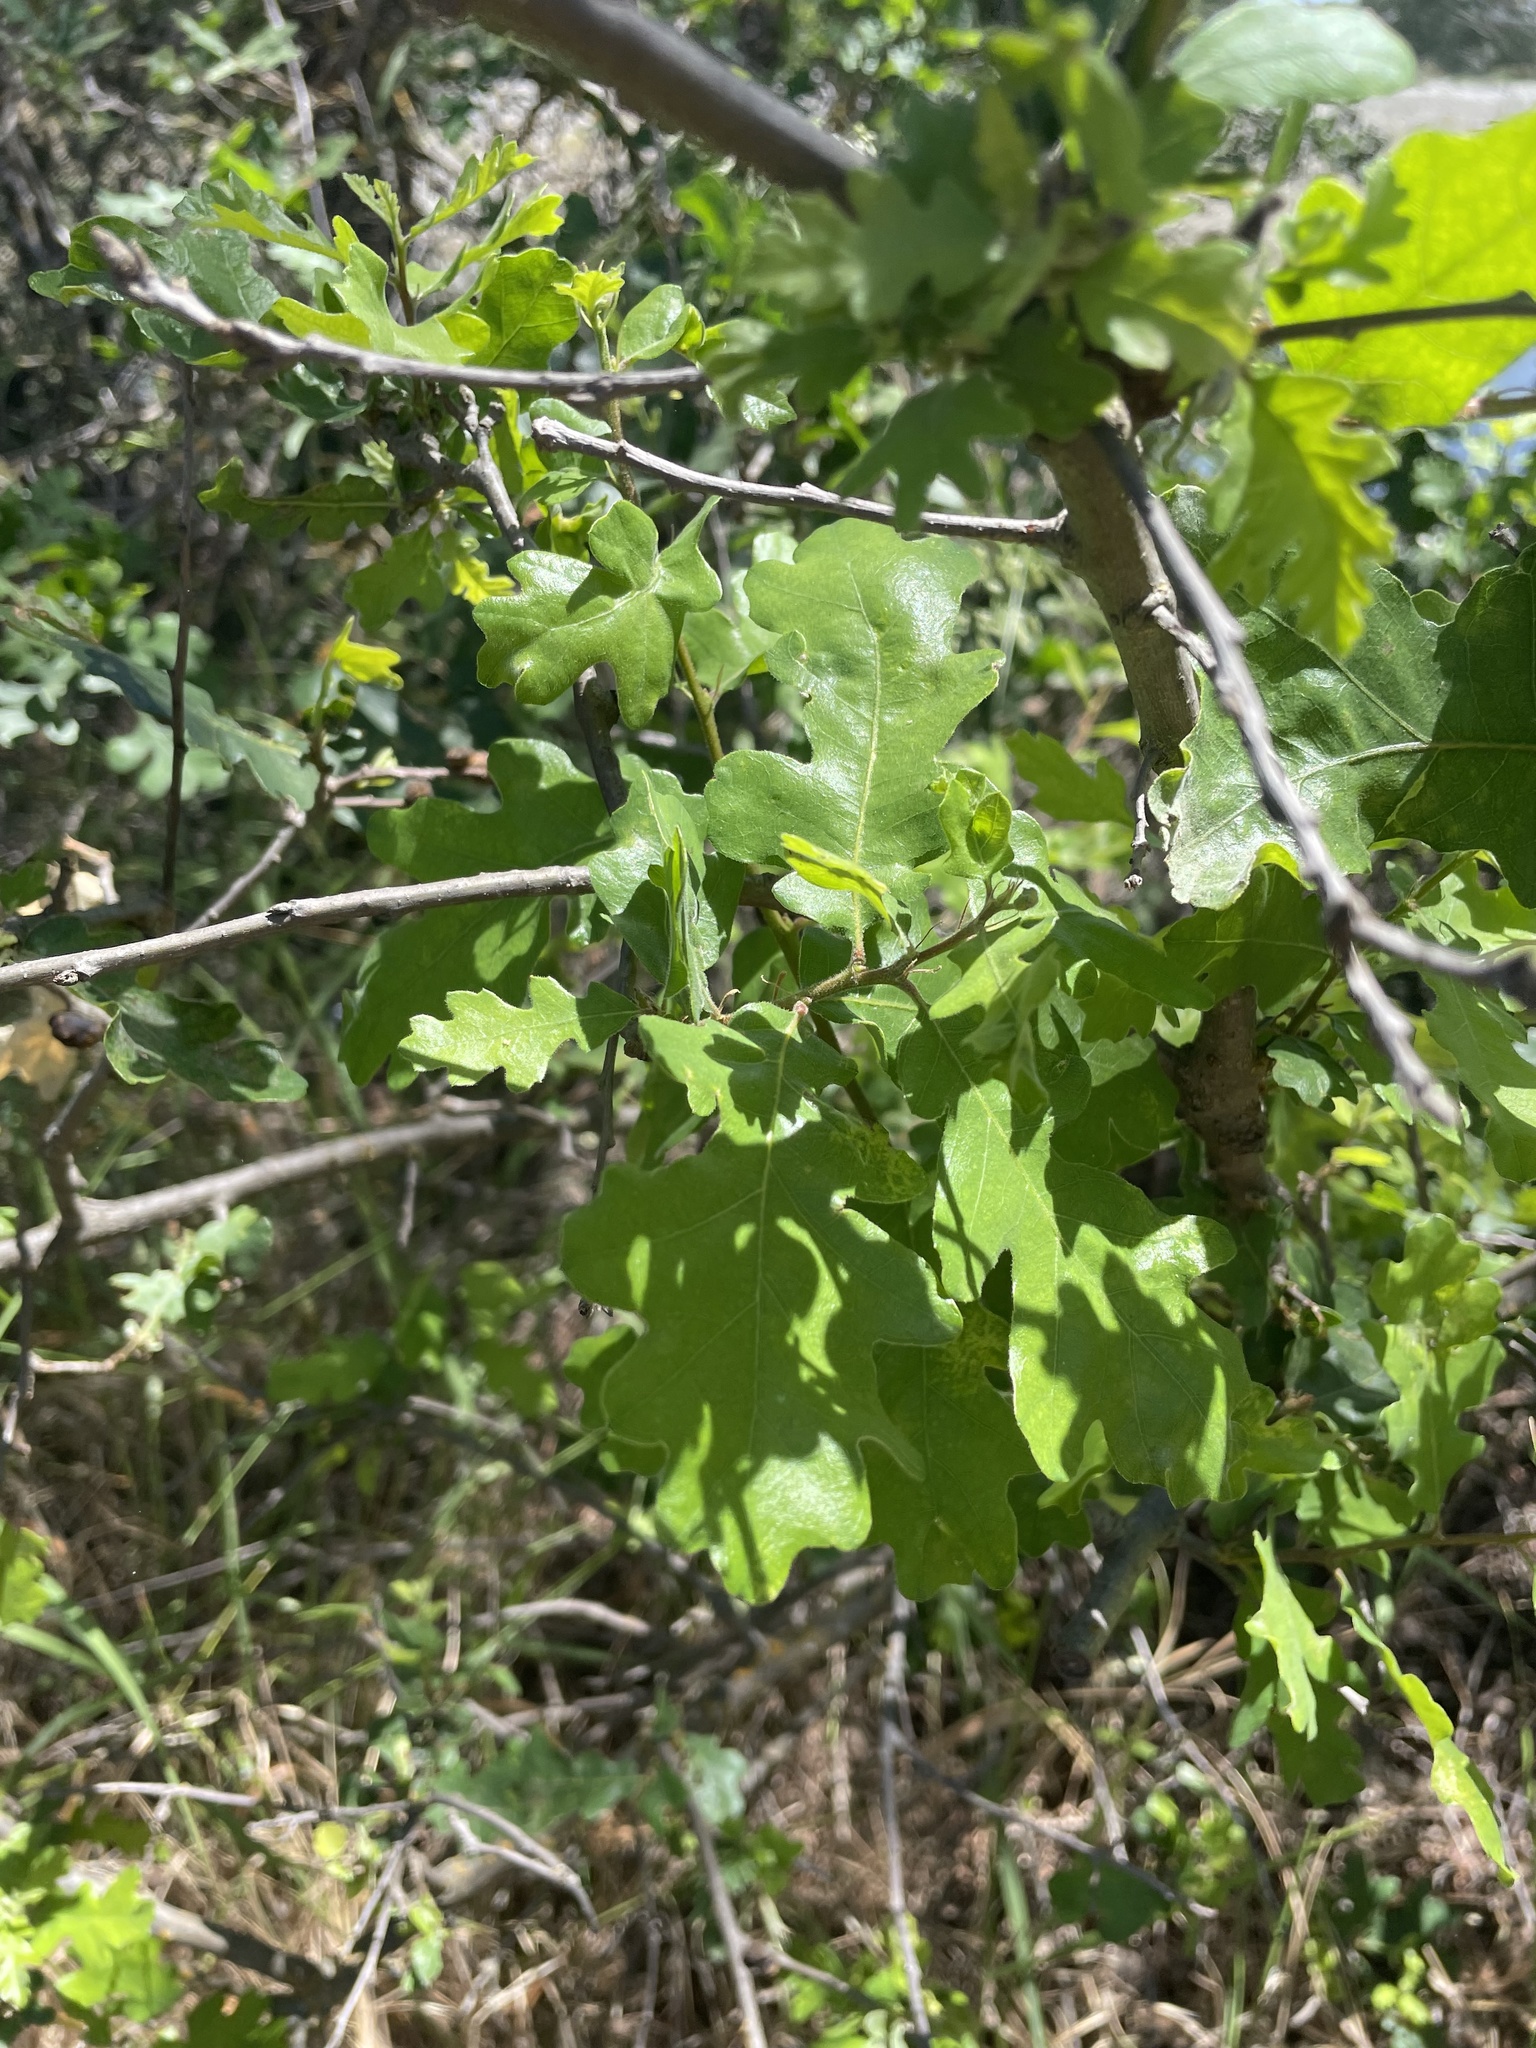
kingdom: Plantae
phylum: Tracheophyta
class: Magnoliopsida
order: Fagales
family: Fagaceae
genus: Quercus
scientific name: Quercus lobata
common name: Valley oak
